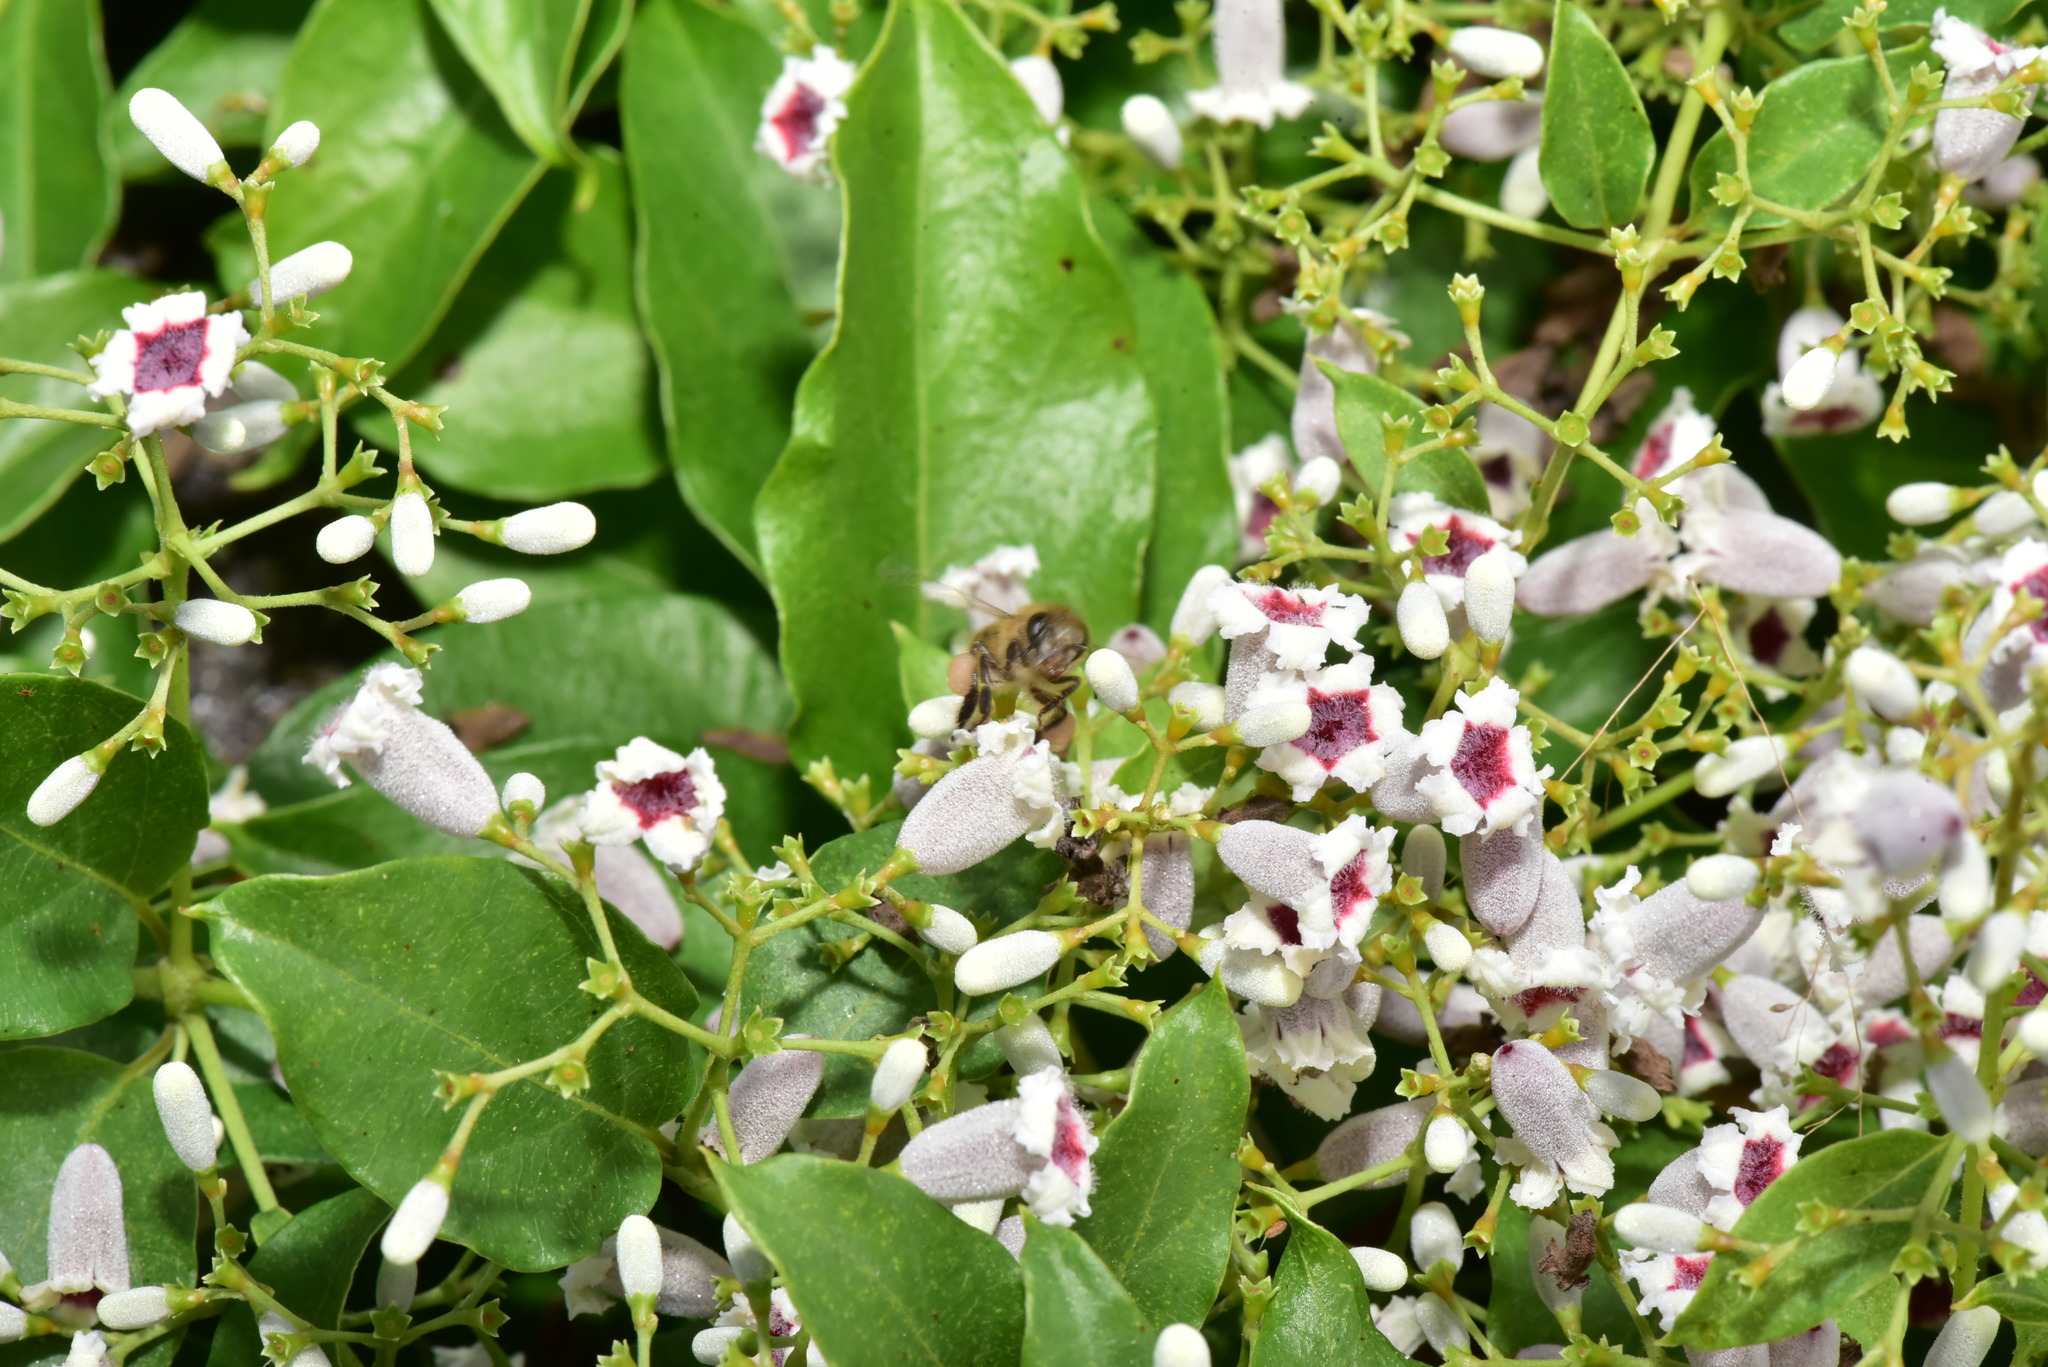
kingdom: Animalia
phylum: Arthropoda
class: Insecta
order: Hymenoptera
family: Apidae
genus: Apis
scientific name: Apis cerana
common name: Honey bee
